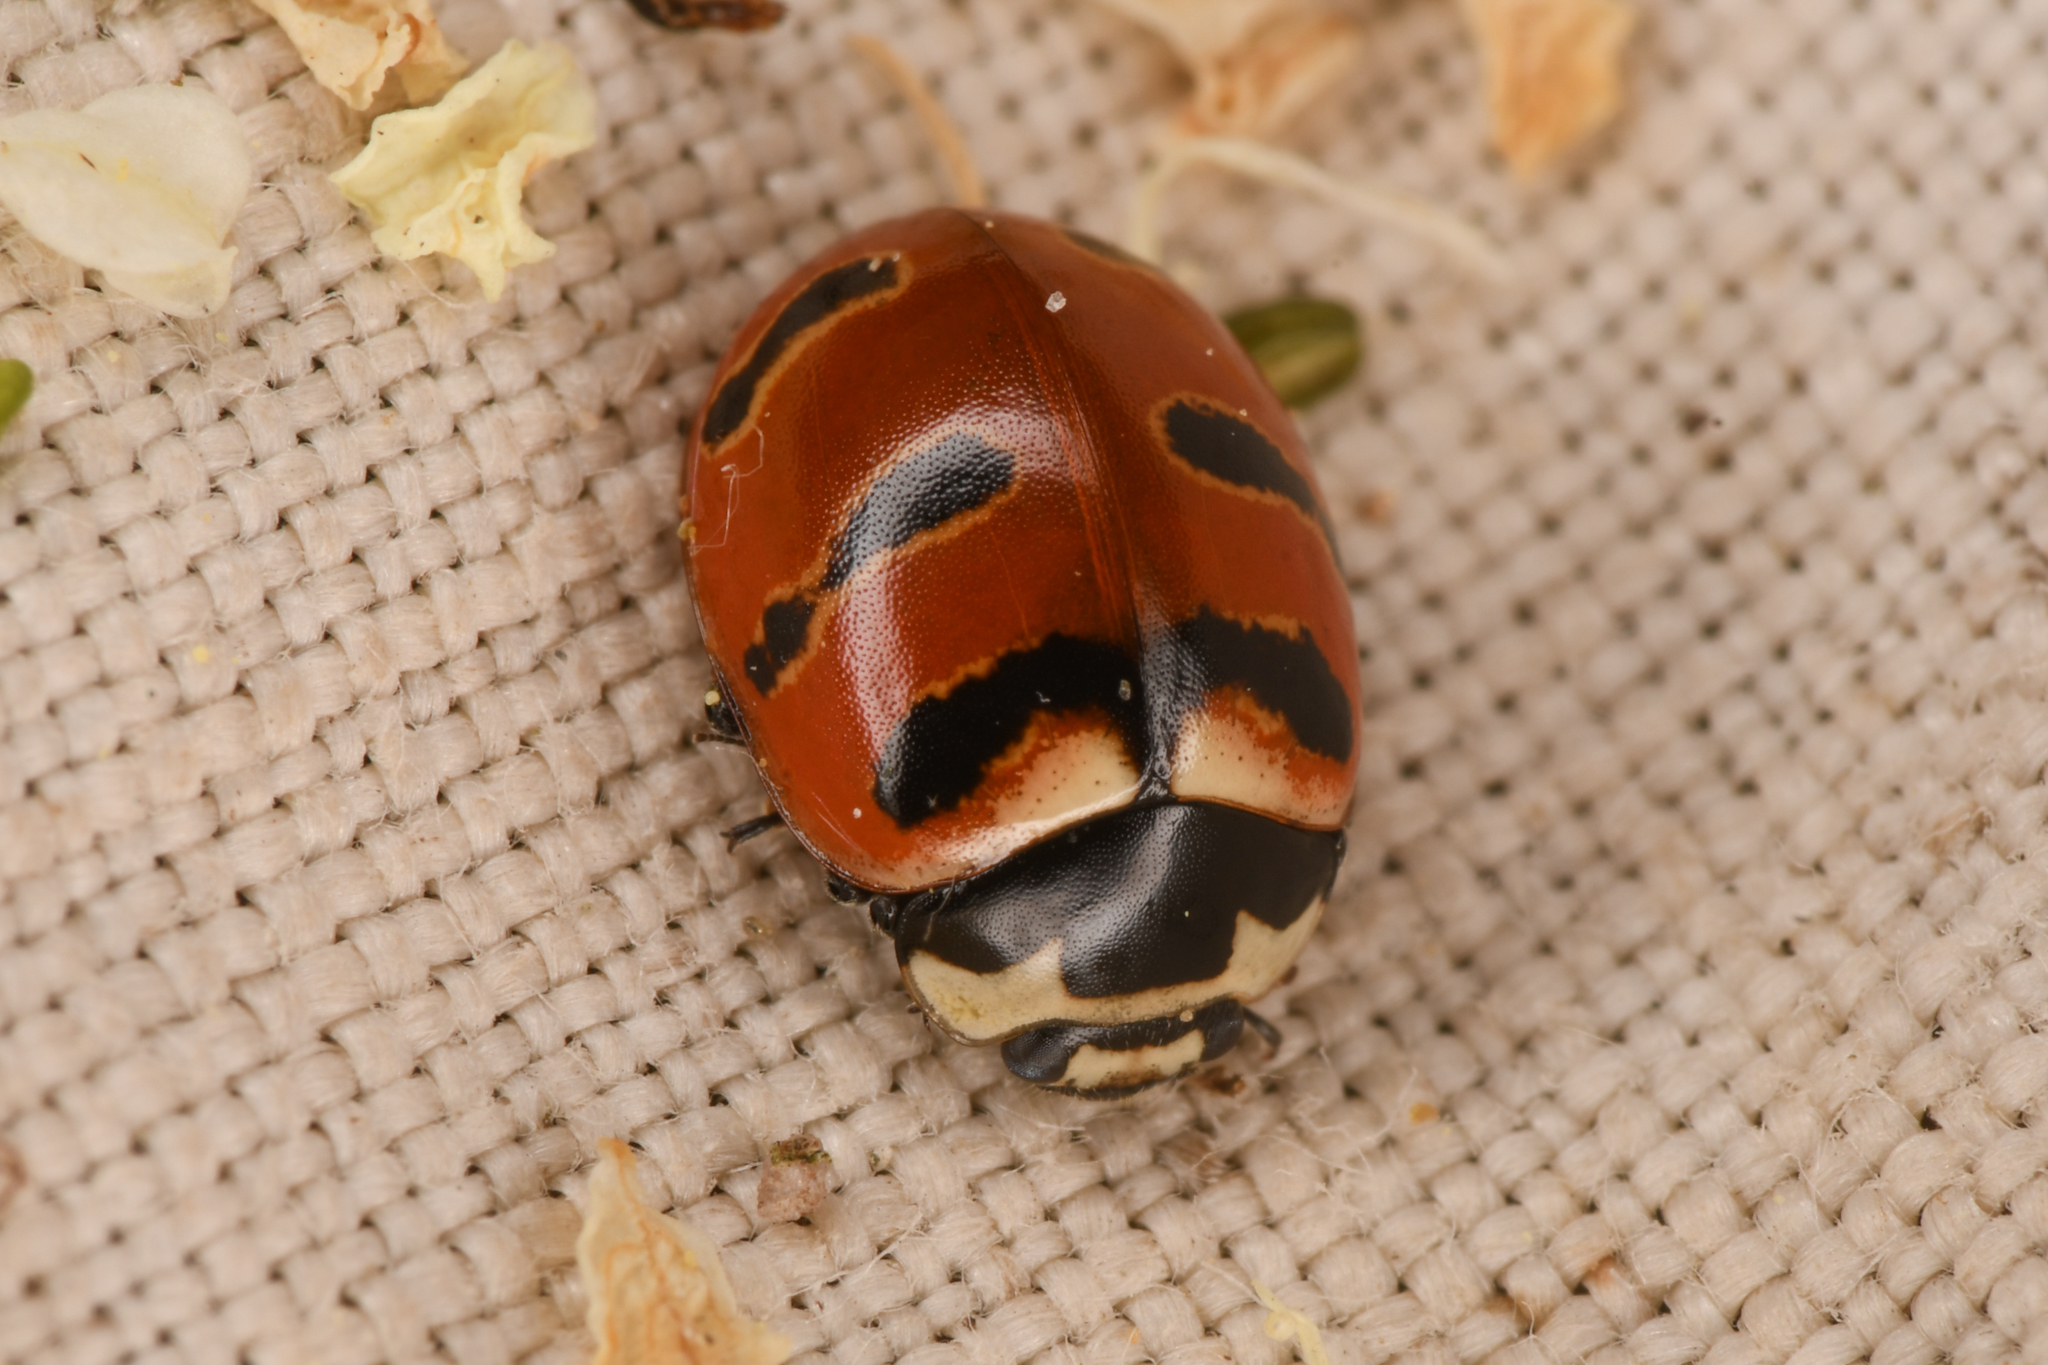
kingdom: Animalia
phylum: Arthropoda
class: Insecta
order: Coleoptera
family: Coccinellidae
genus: Coccinella
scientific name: Coccinella trifasciata
